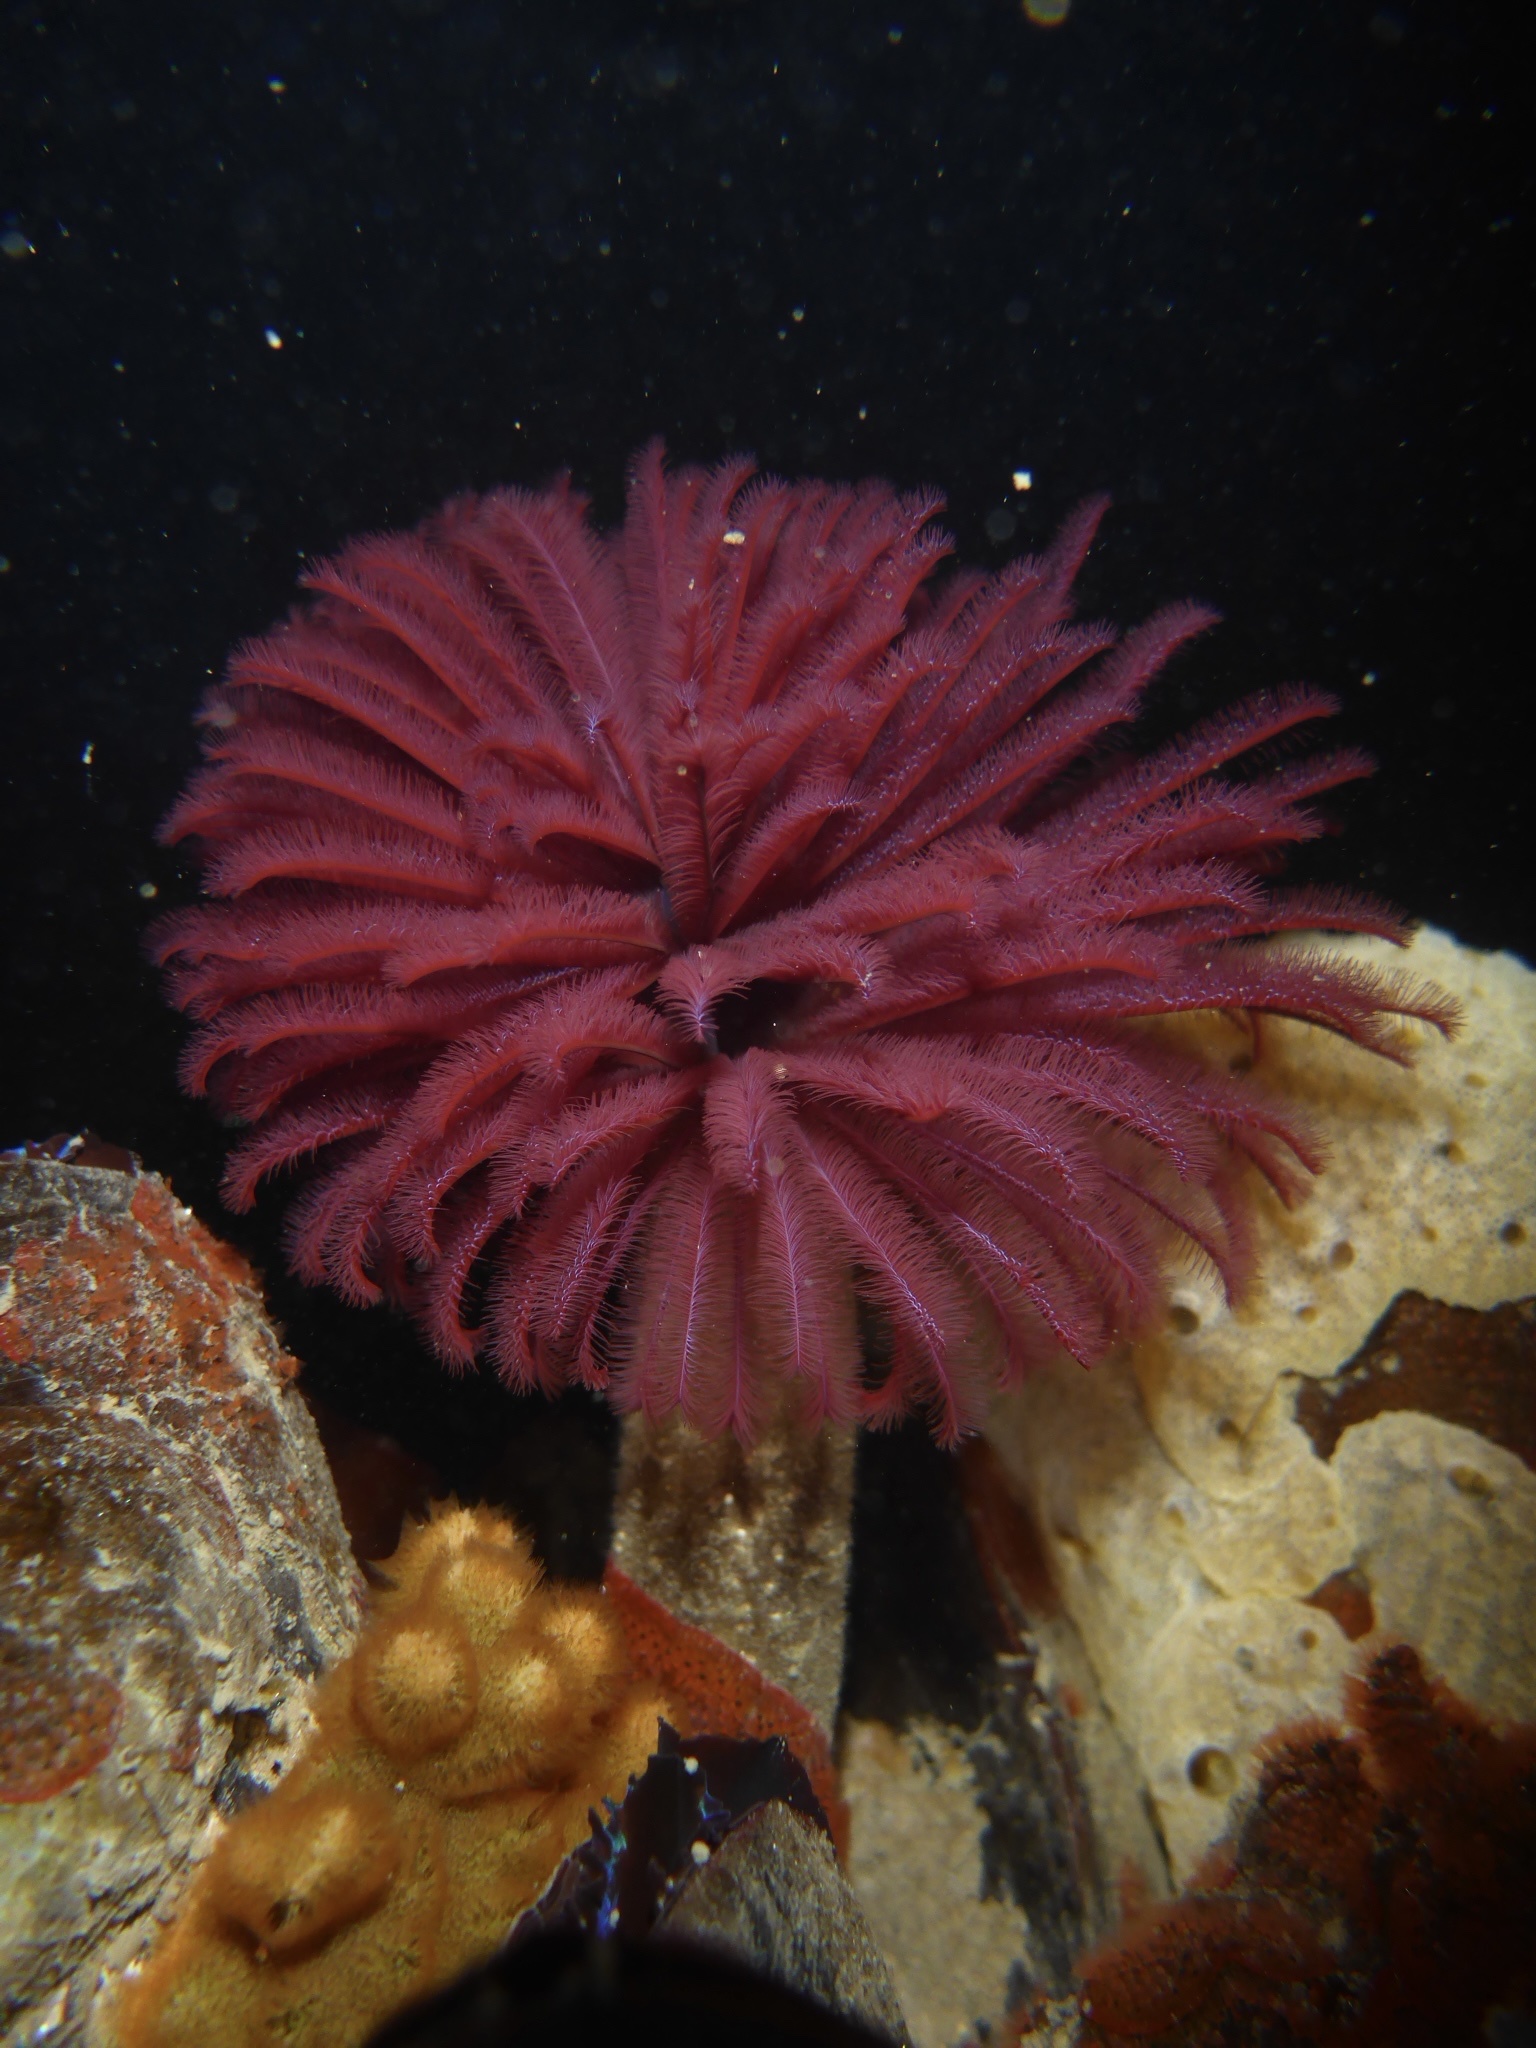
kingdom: Animalia
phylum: Annelida
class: Polychaeta
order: Sabellida
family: Sabellidae
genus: Eudistylia
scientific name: Eudistylia polymorpha
